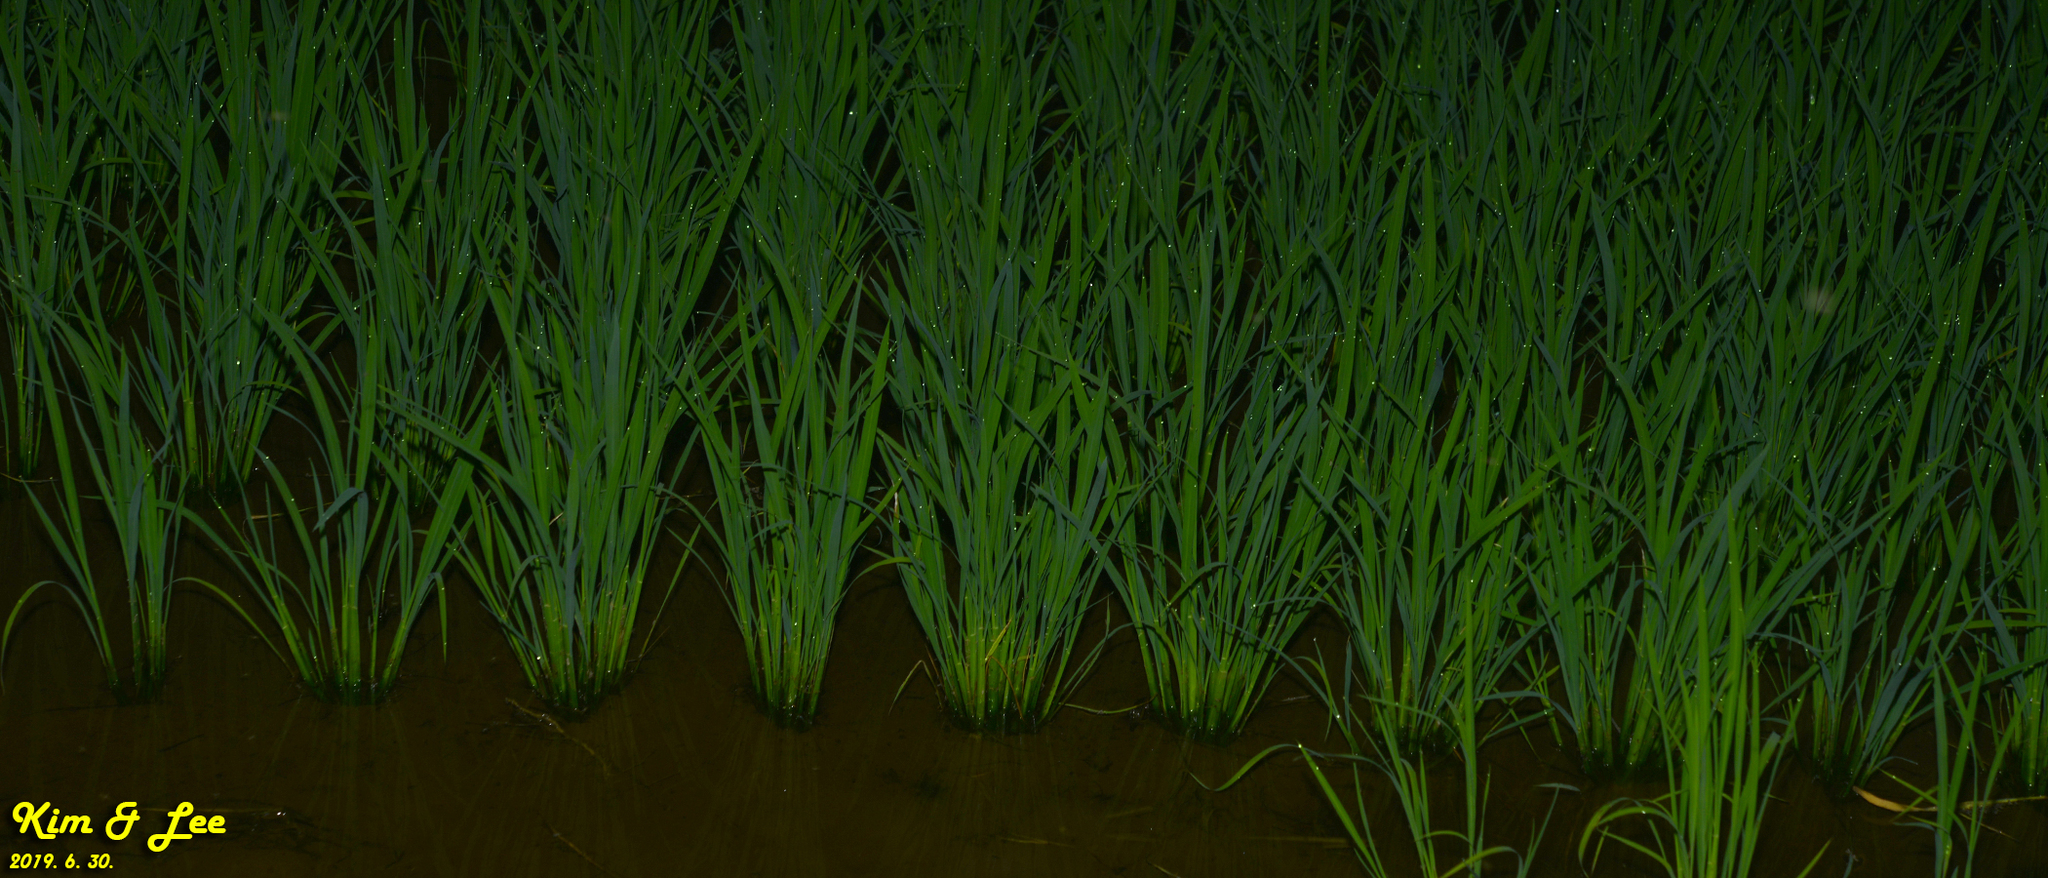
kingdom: Animalia
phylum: Chordata
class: Amphibia
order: Anura
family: Hylidae
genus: Dryophytes
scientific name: Dryophytes immaculatus
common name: North china treefrog
